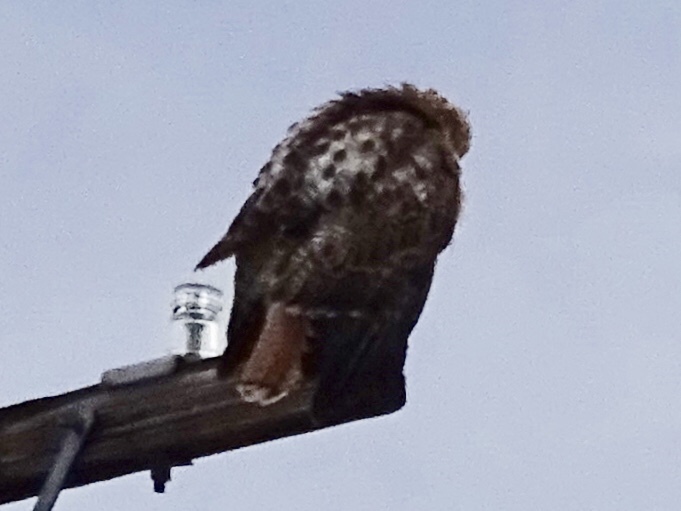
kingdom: Animalia
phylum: Chordata
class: Aves
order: Accipitriformes
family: Accipitridae
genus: Buteo
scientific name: Buteo jamaicensis
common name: Red-tailed hawk
